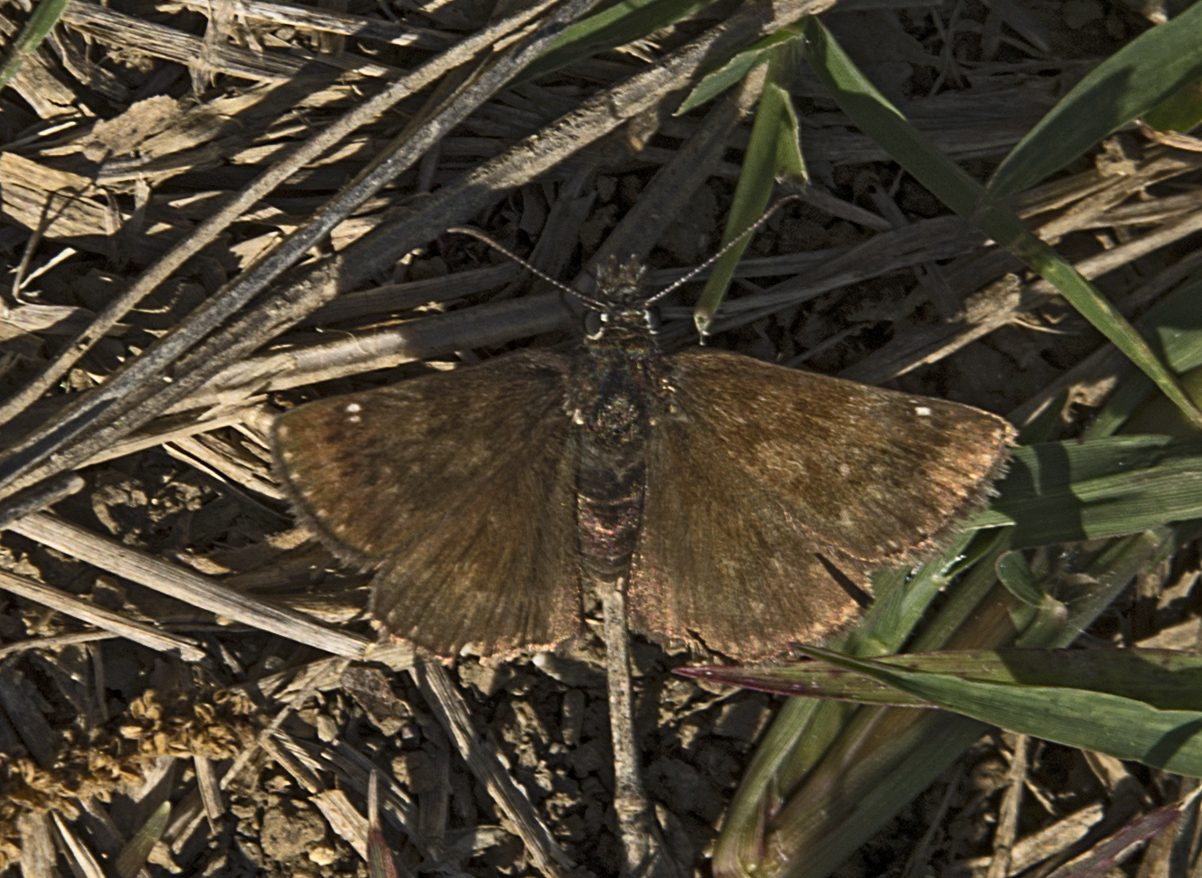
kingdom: Animalia
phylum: Arthropoda
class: Insecta
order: Lepidoptera
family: Hesperiidae
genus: Erynnis
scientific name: Erynnis tages
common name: Dingy skipper
